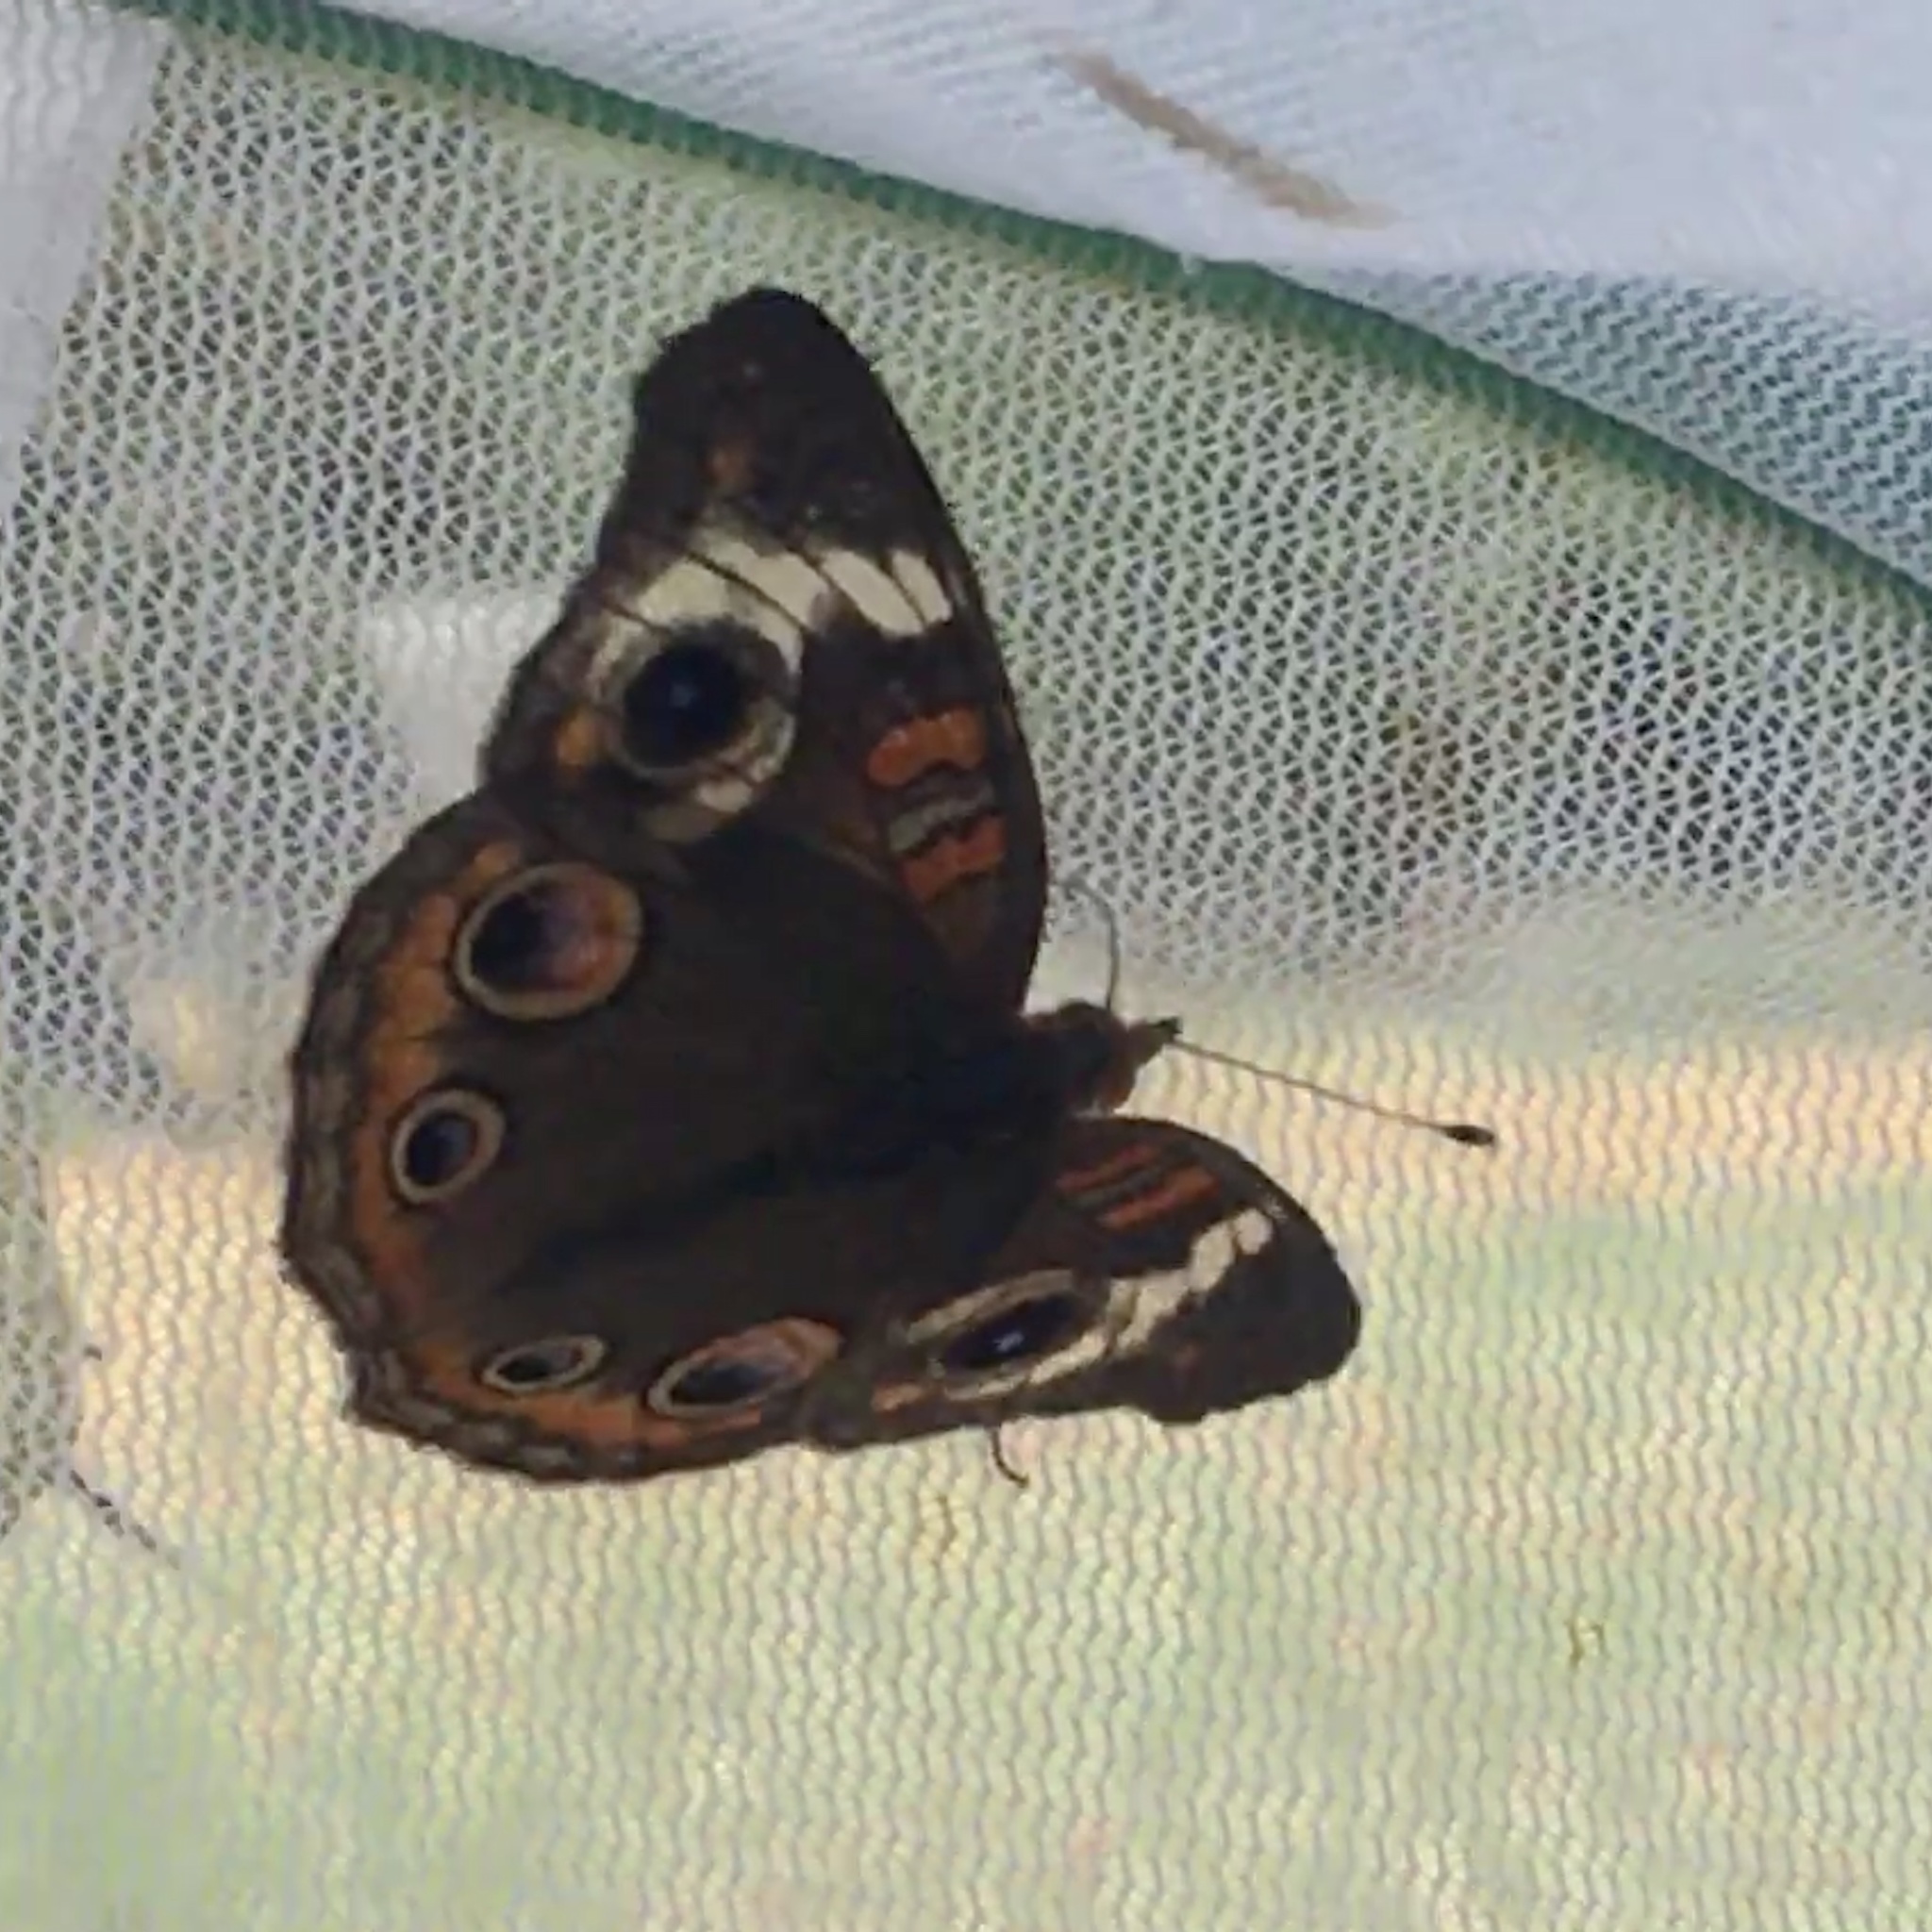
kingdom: Animalia
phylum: Arthropoda
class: Insecta
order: Lepidoptera
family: Nymphalidae
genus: Junonia
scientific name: Junonia coenia
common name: Common buckeye
